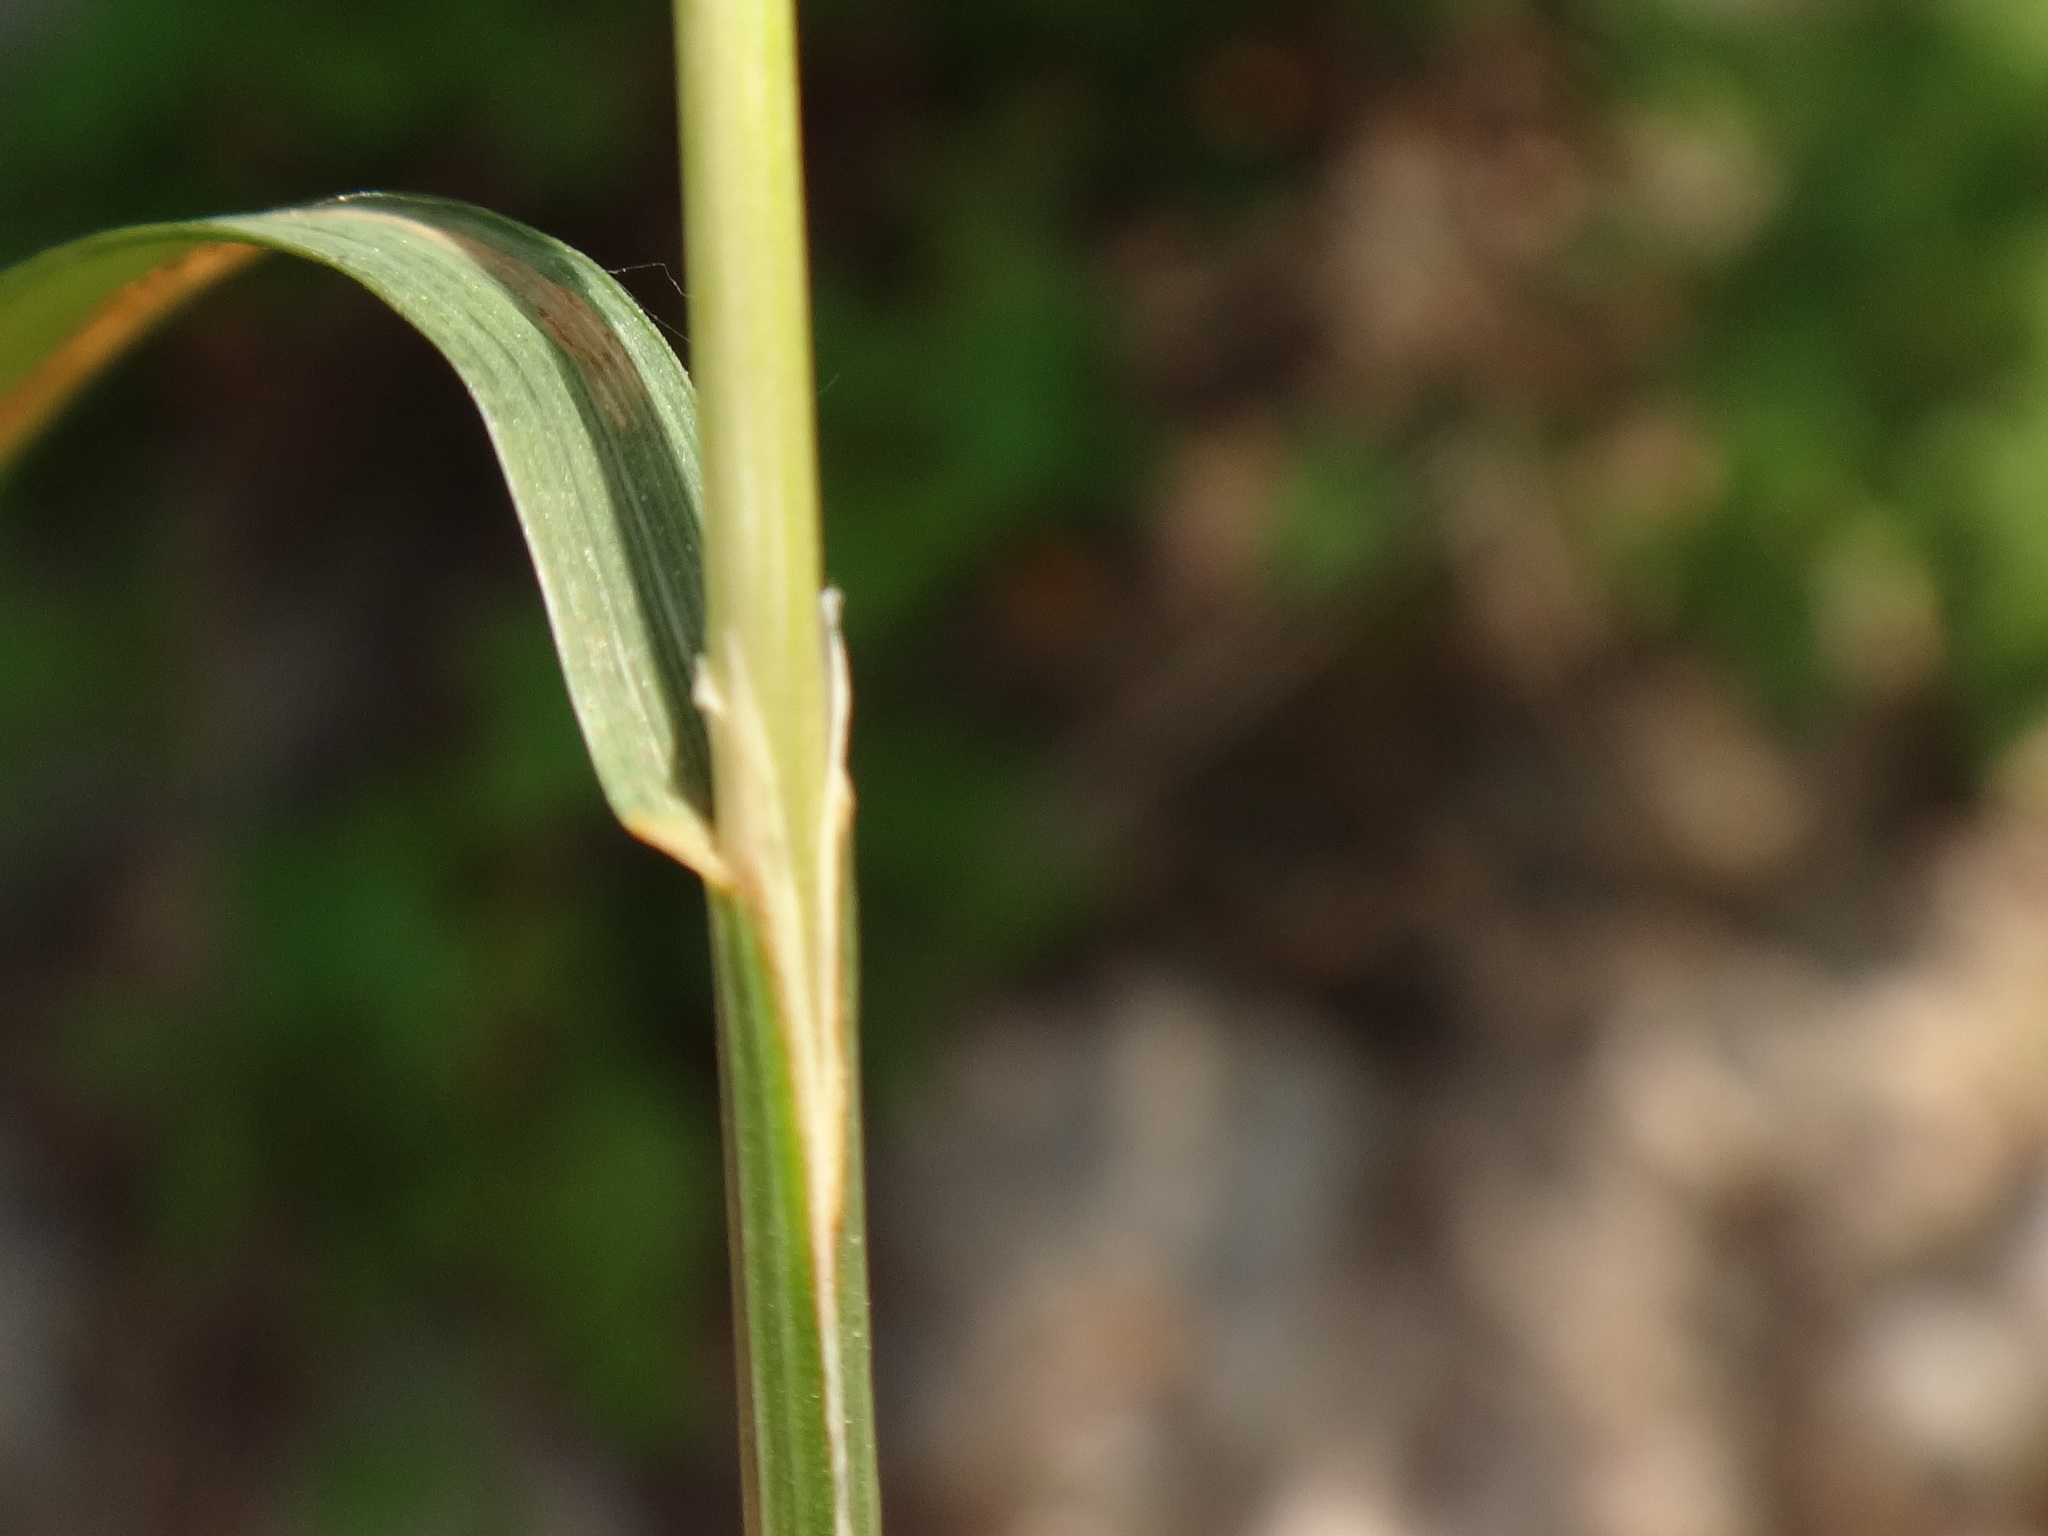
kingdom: Plantae
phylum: Tracheophyta
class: Liliopsida
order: Poales
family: Poaceae
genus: Catapodium
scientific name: Catapodium rigidum
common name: Fern-grass
